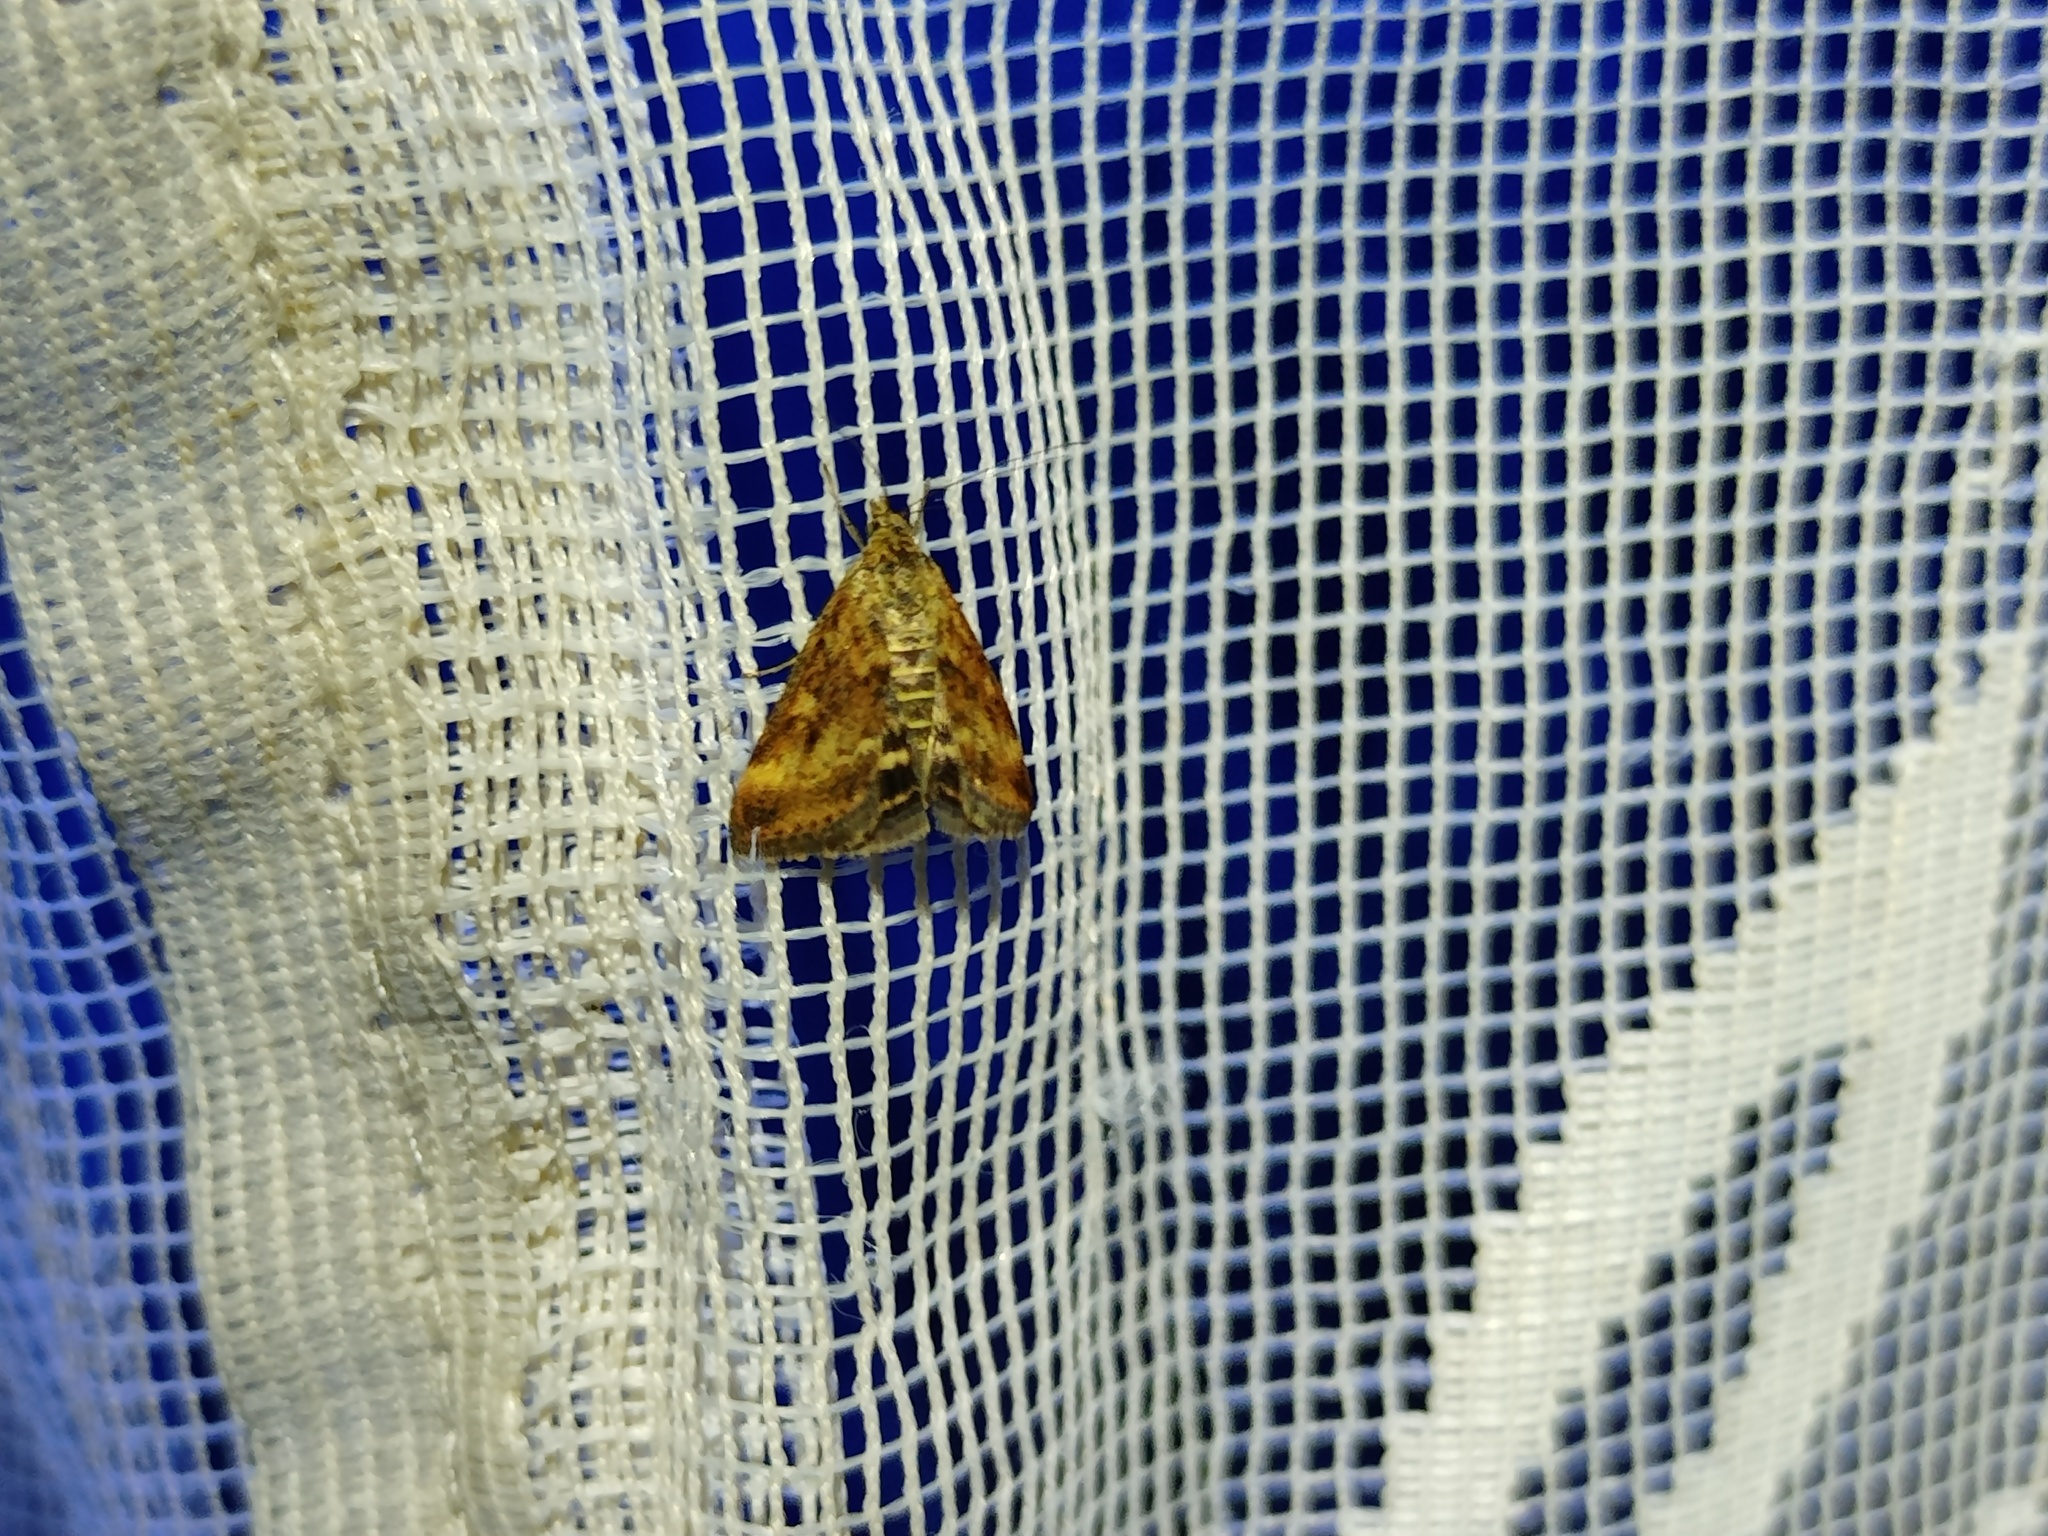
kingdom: Animalia
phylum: Arthropoda
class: Insecta
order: Lepidoptera
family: Crambidae
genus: Pyrausta
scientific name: Pyrausta despicata
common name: Straw-barred pearl
